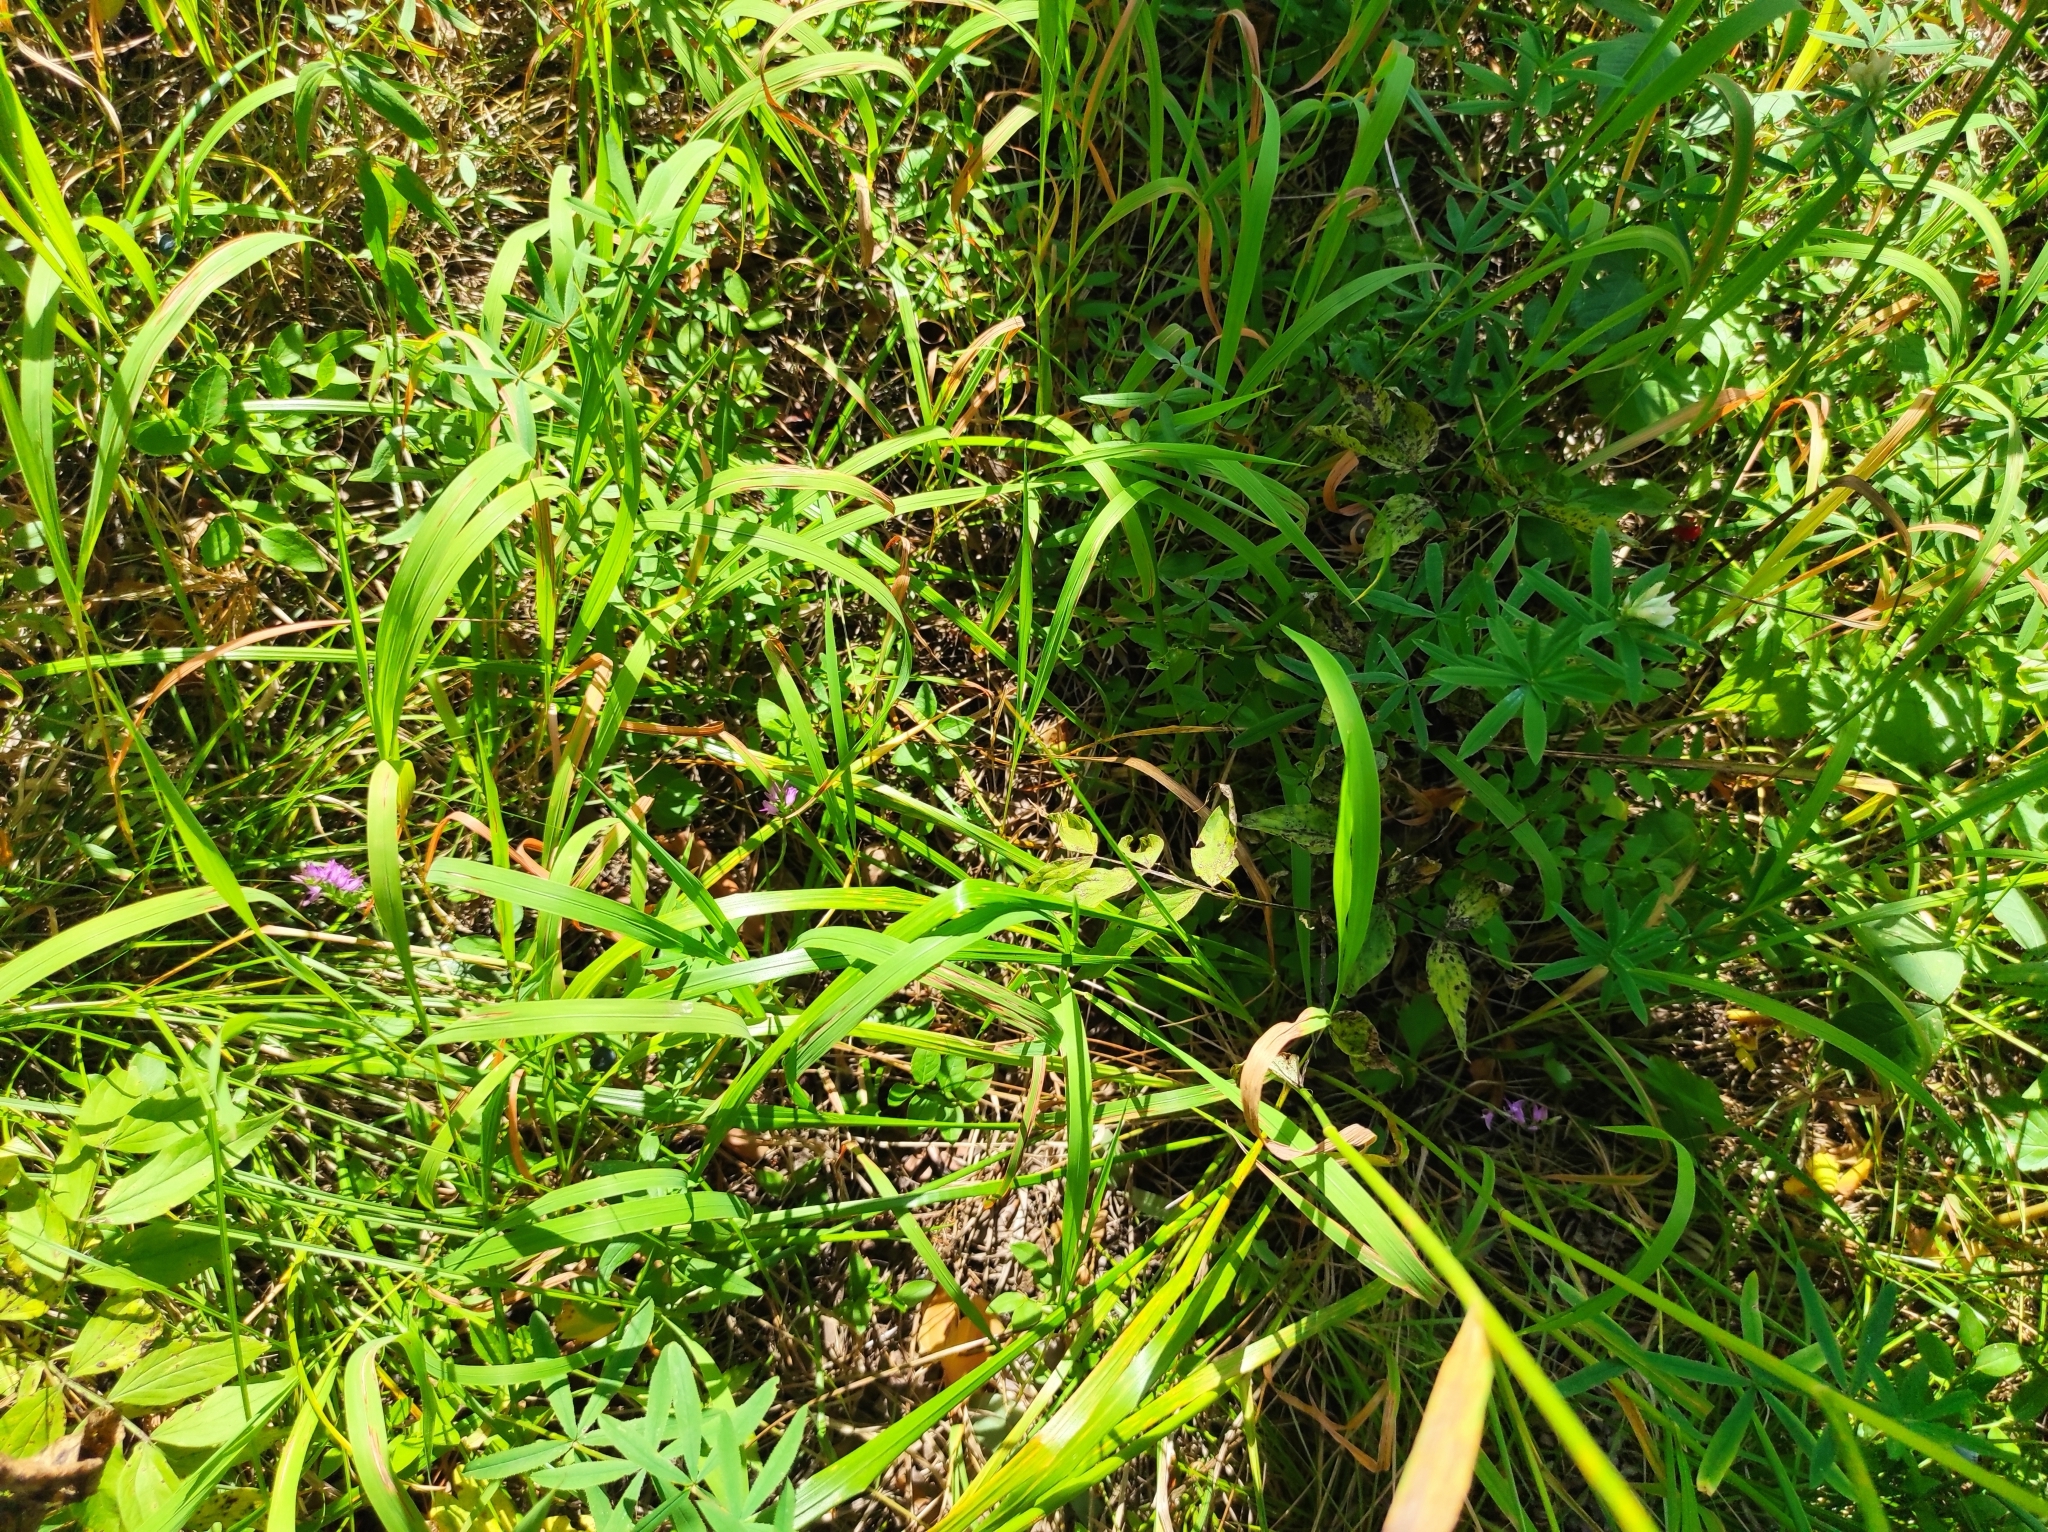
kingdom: Plantae
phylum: Tracheophyta
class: Liliopsida
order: Asparagales
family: Orchidaceae
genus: Hemipilia
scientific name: Hemipilia cucullata
